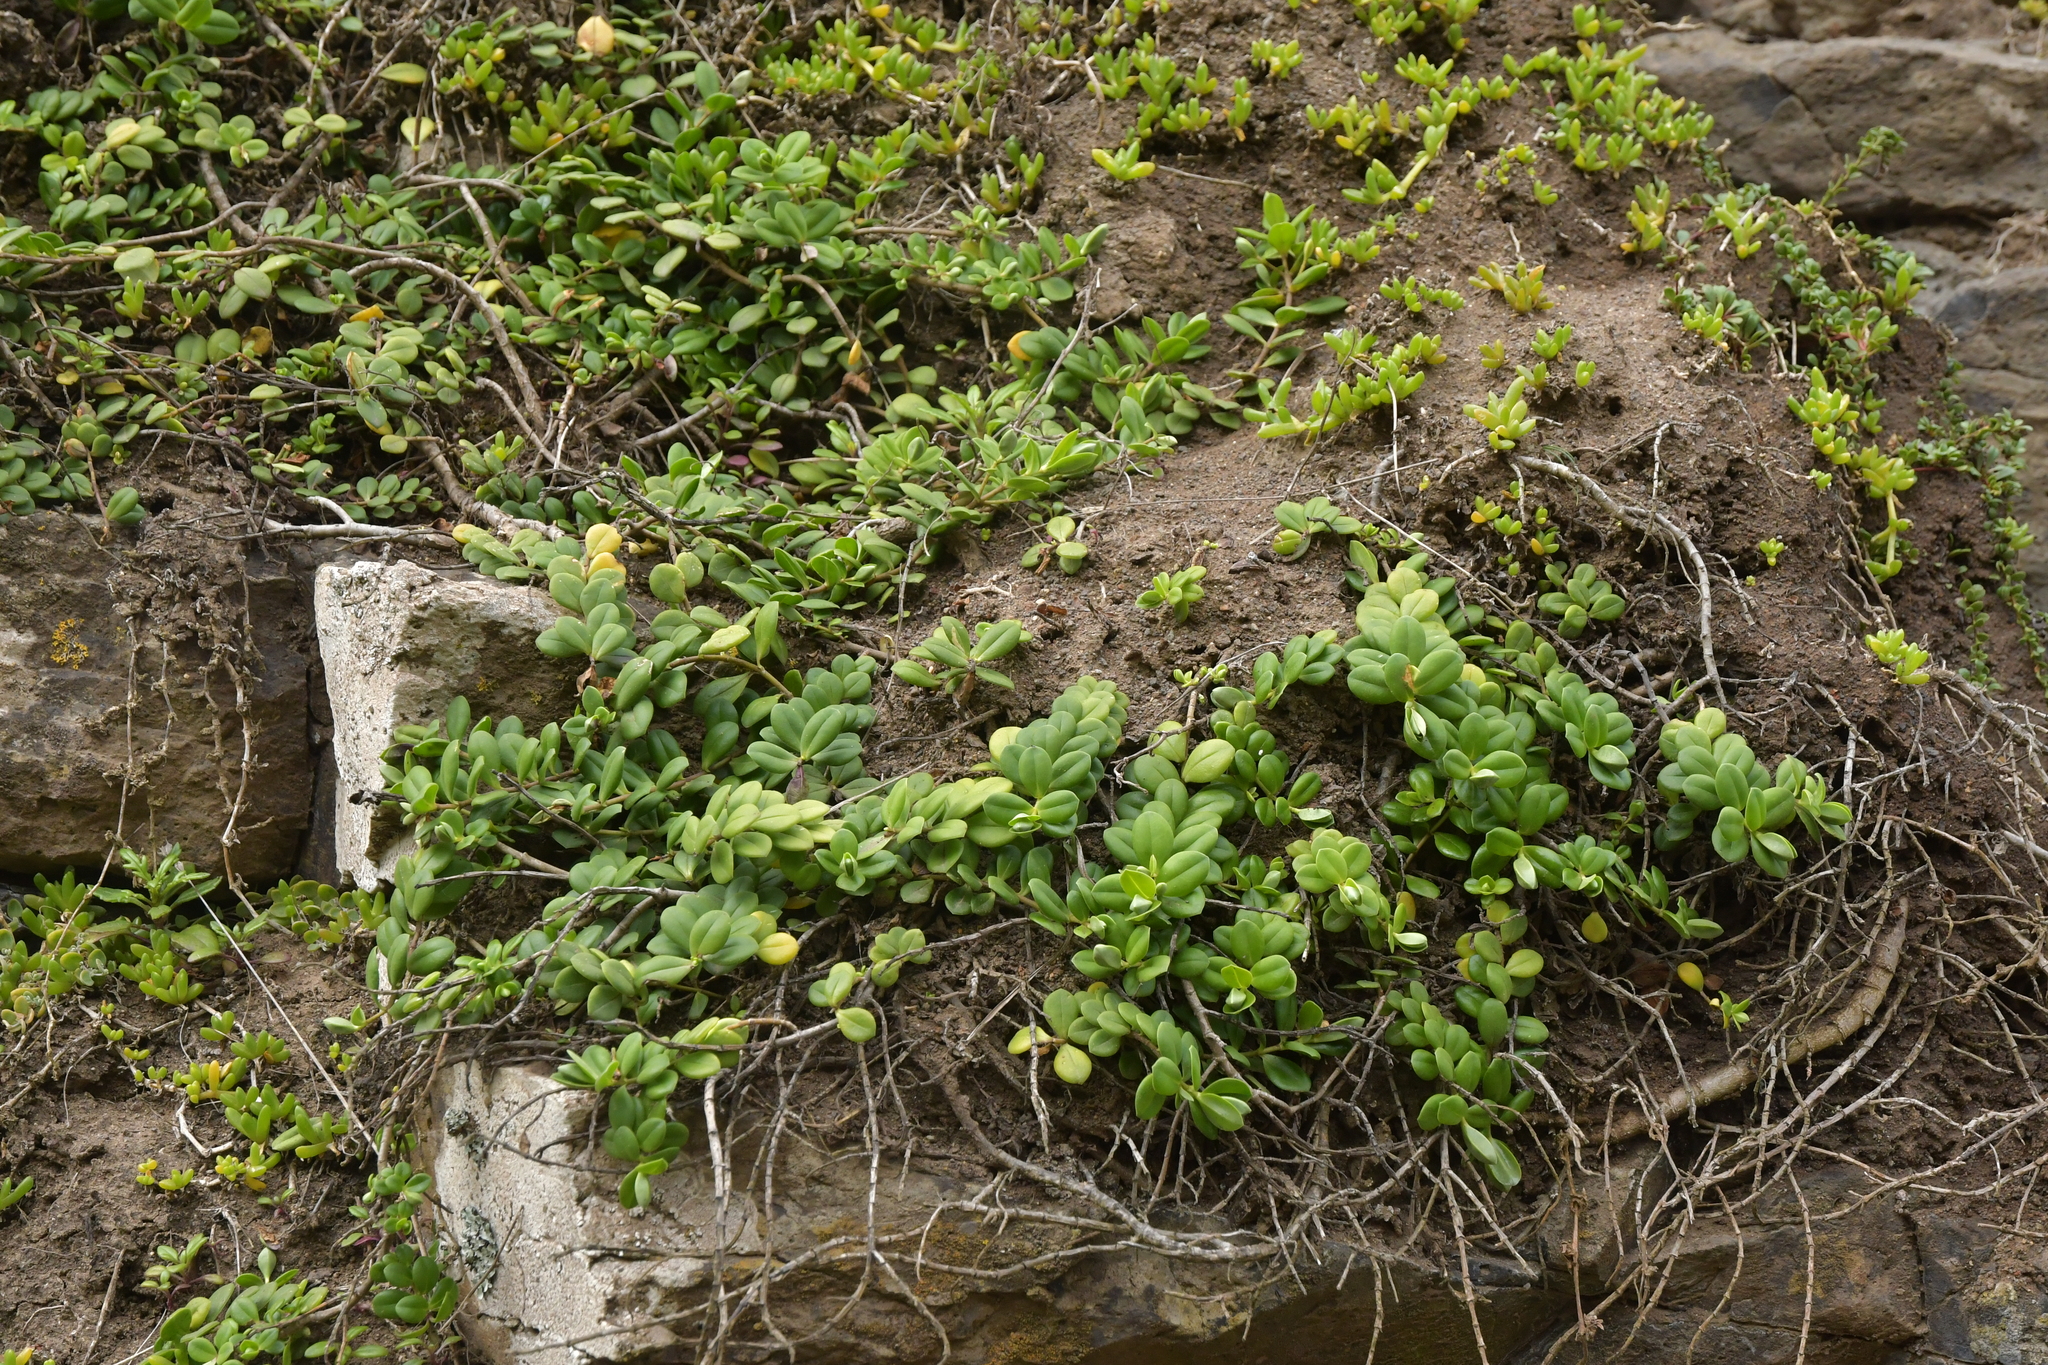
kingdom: Plantae
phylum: Tracheophyta
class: Magnoliopsida
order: Lamiales
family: Plantaginaceae
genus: Veronica
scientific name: Veronica chathamica
